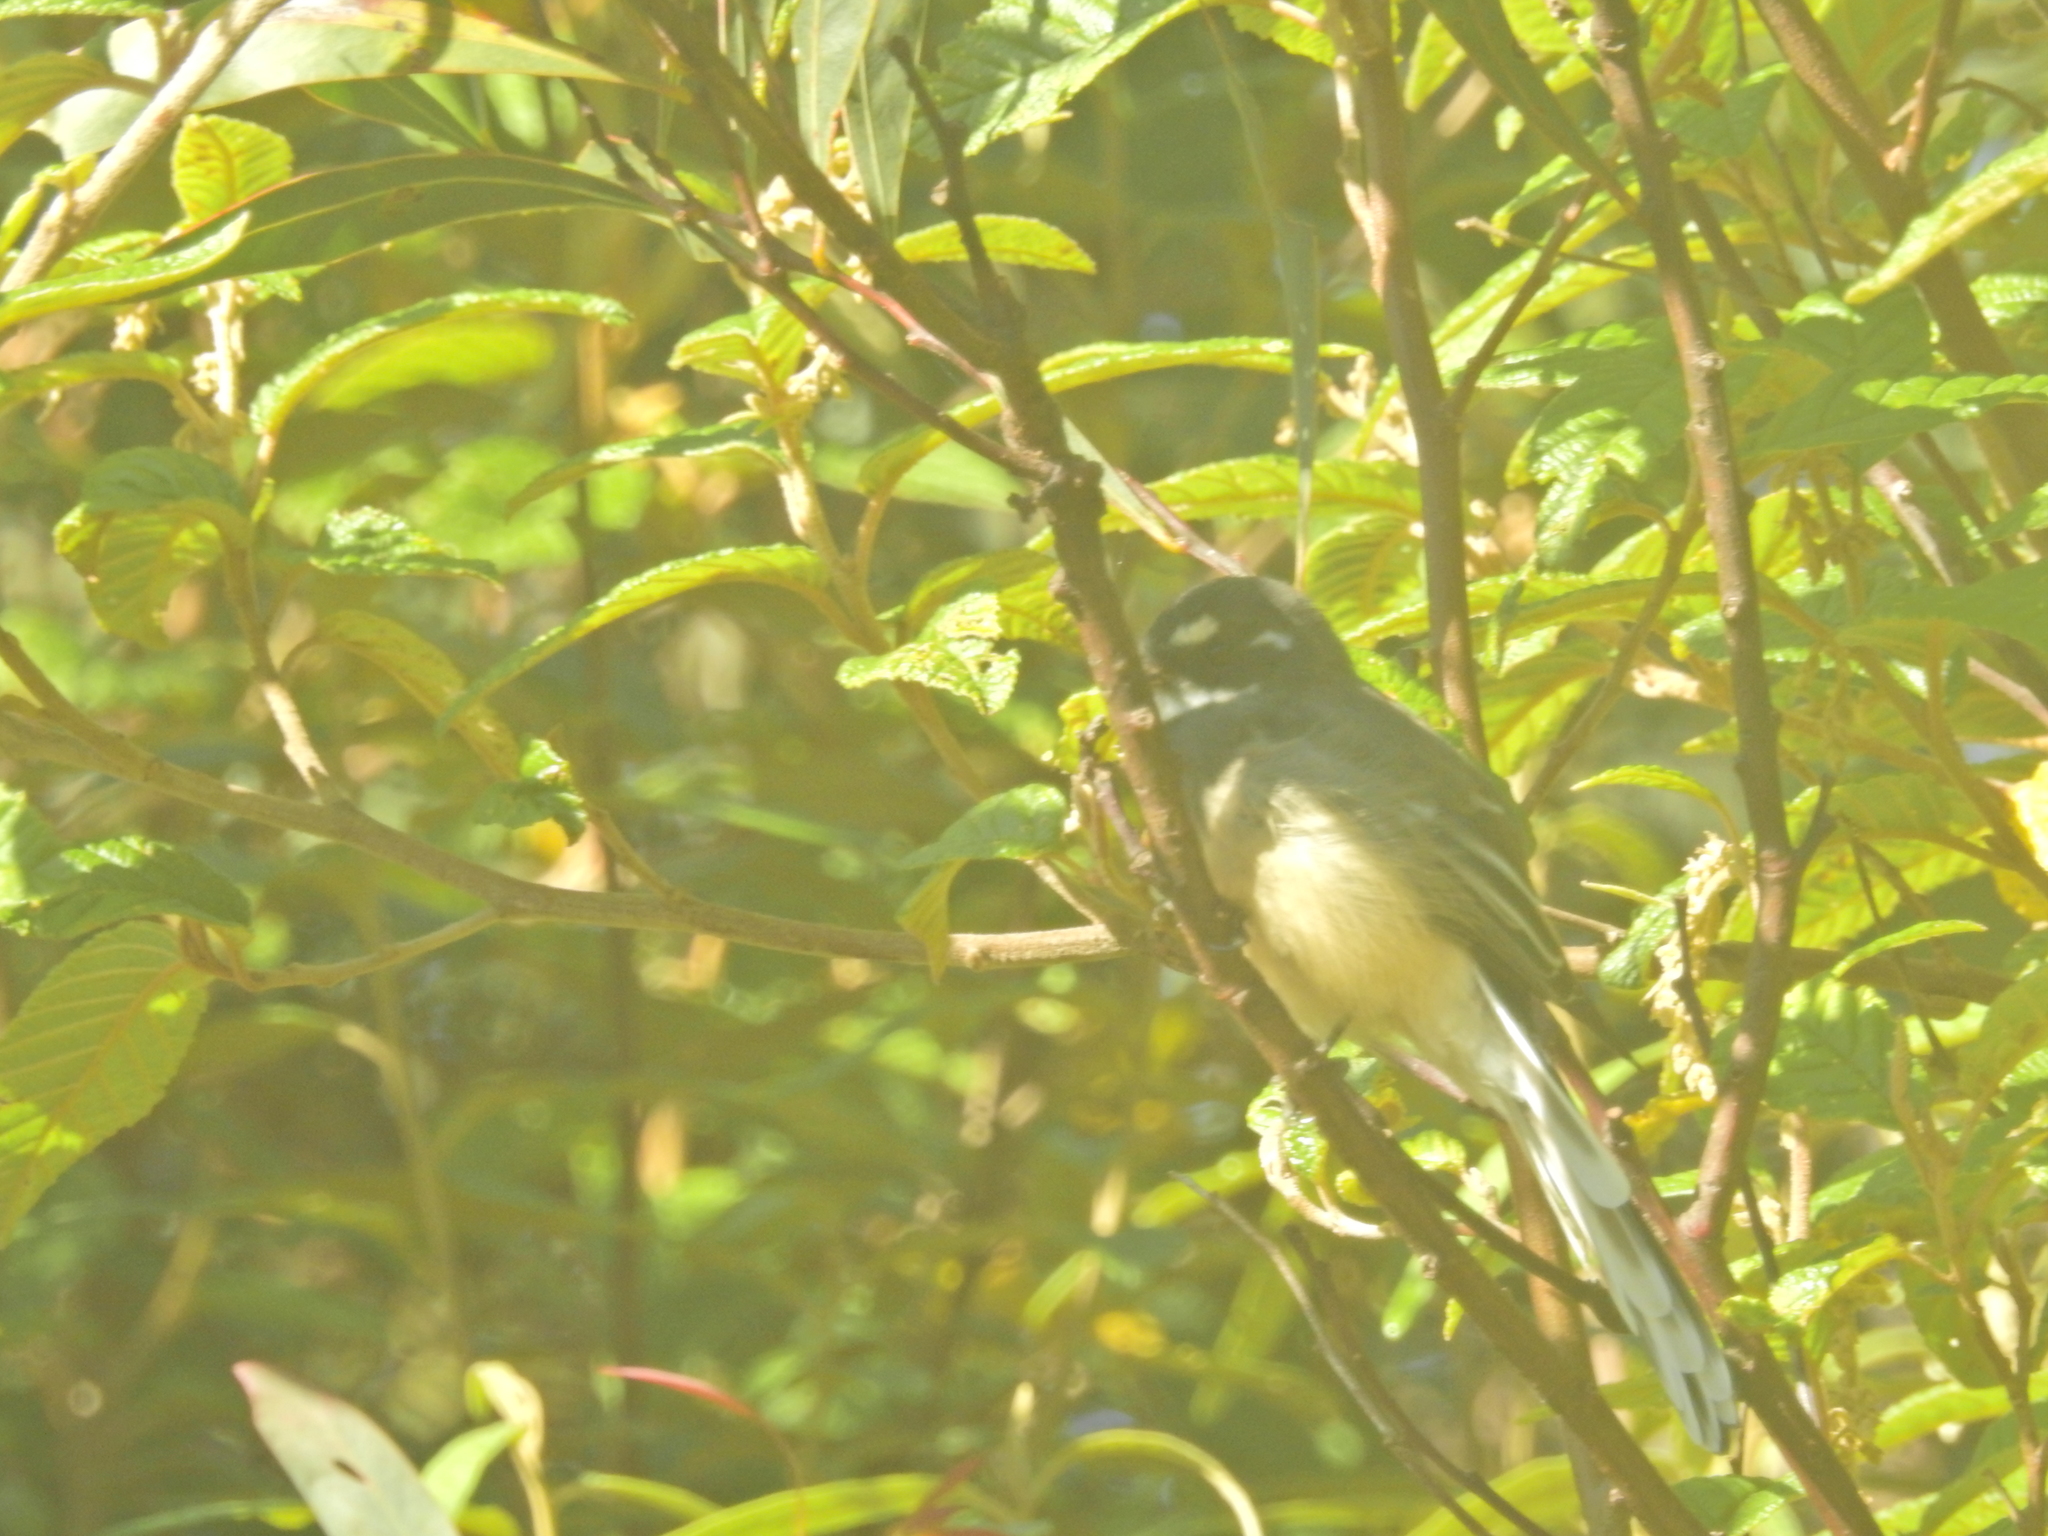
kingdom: Animalia
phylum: Chordata
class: Aves
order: Passeriformes
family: Rhipiduridae
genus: Rhipidura
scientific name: Rhipidura albiscapa
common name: Grey fantail
